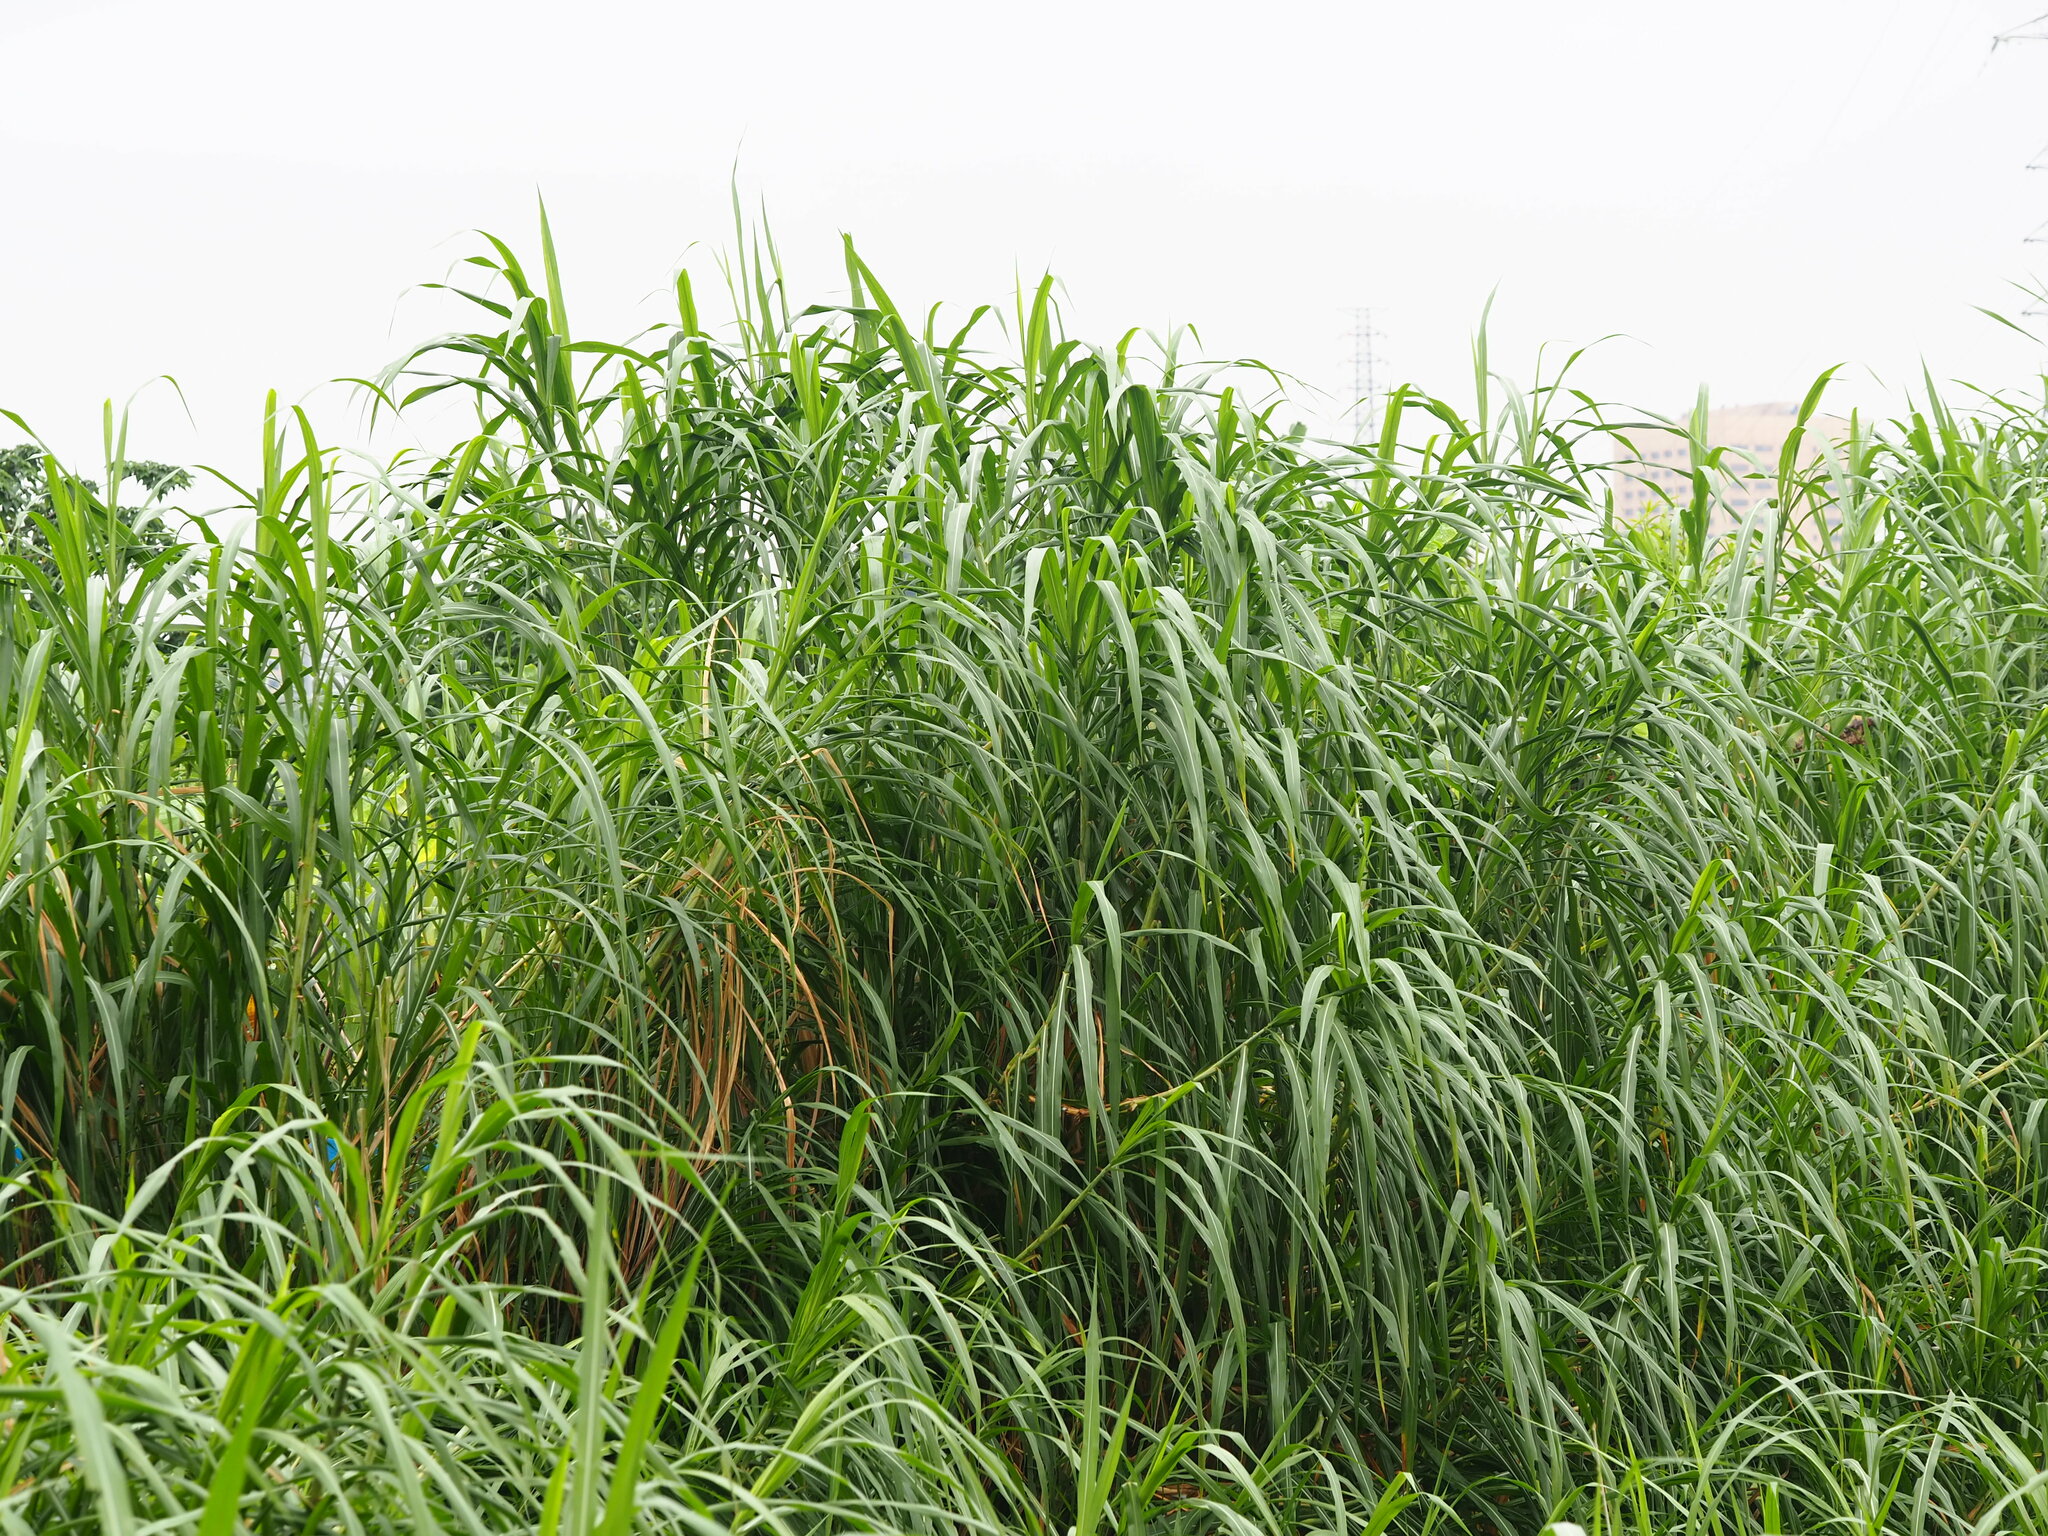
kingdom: Plantae
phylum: Tracheophyta
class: Liliopsida
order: Poales
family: Poaceae
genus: Cenchrus
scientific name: Cenchrus purpureus
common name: Elephant grass
